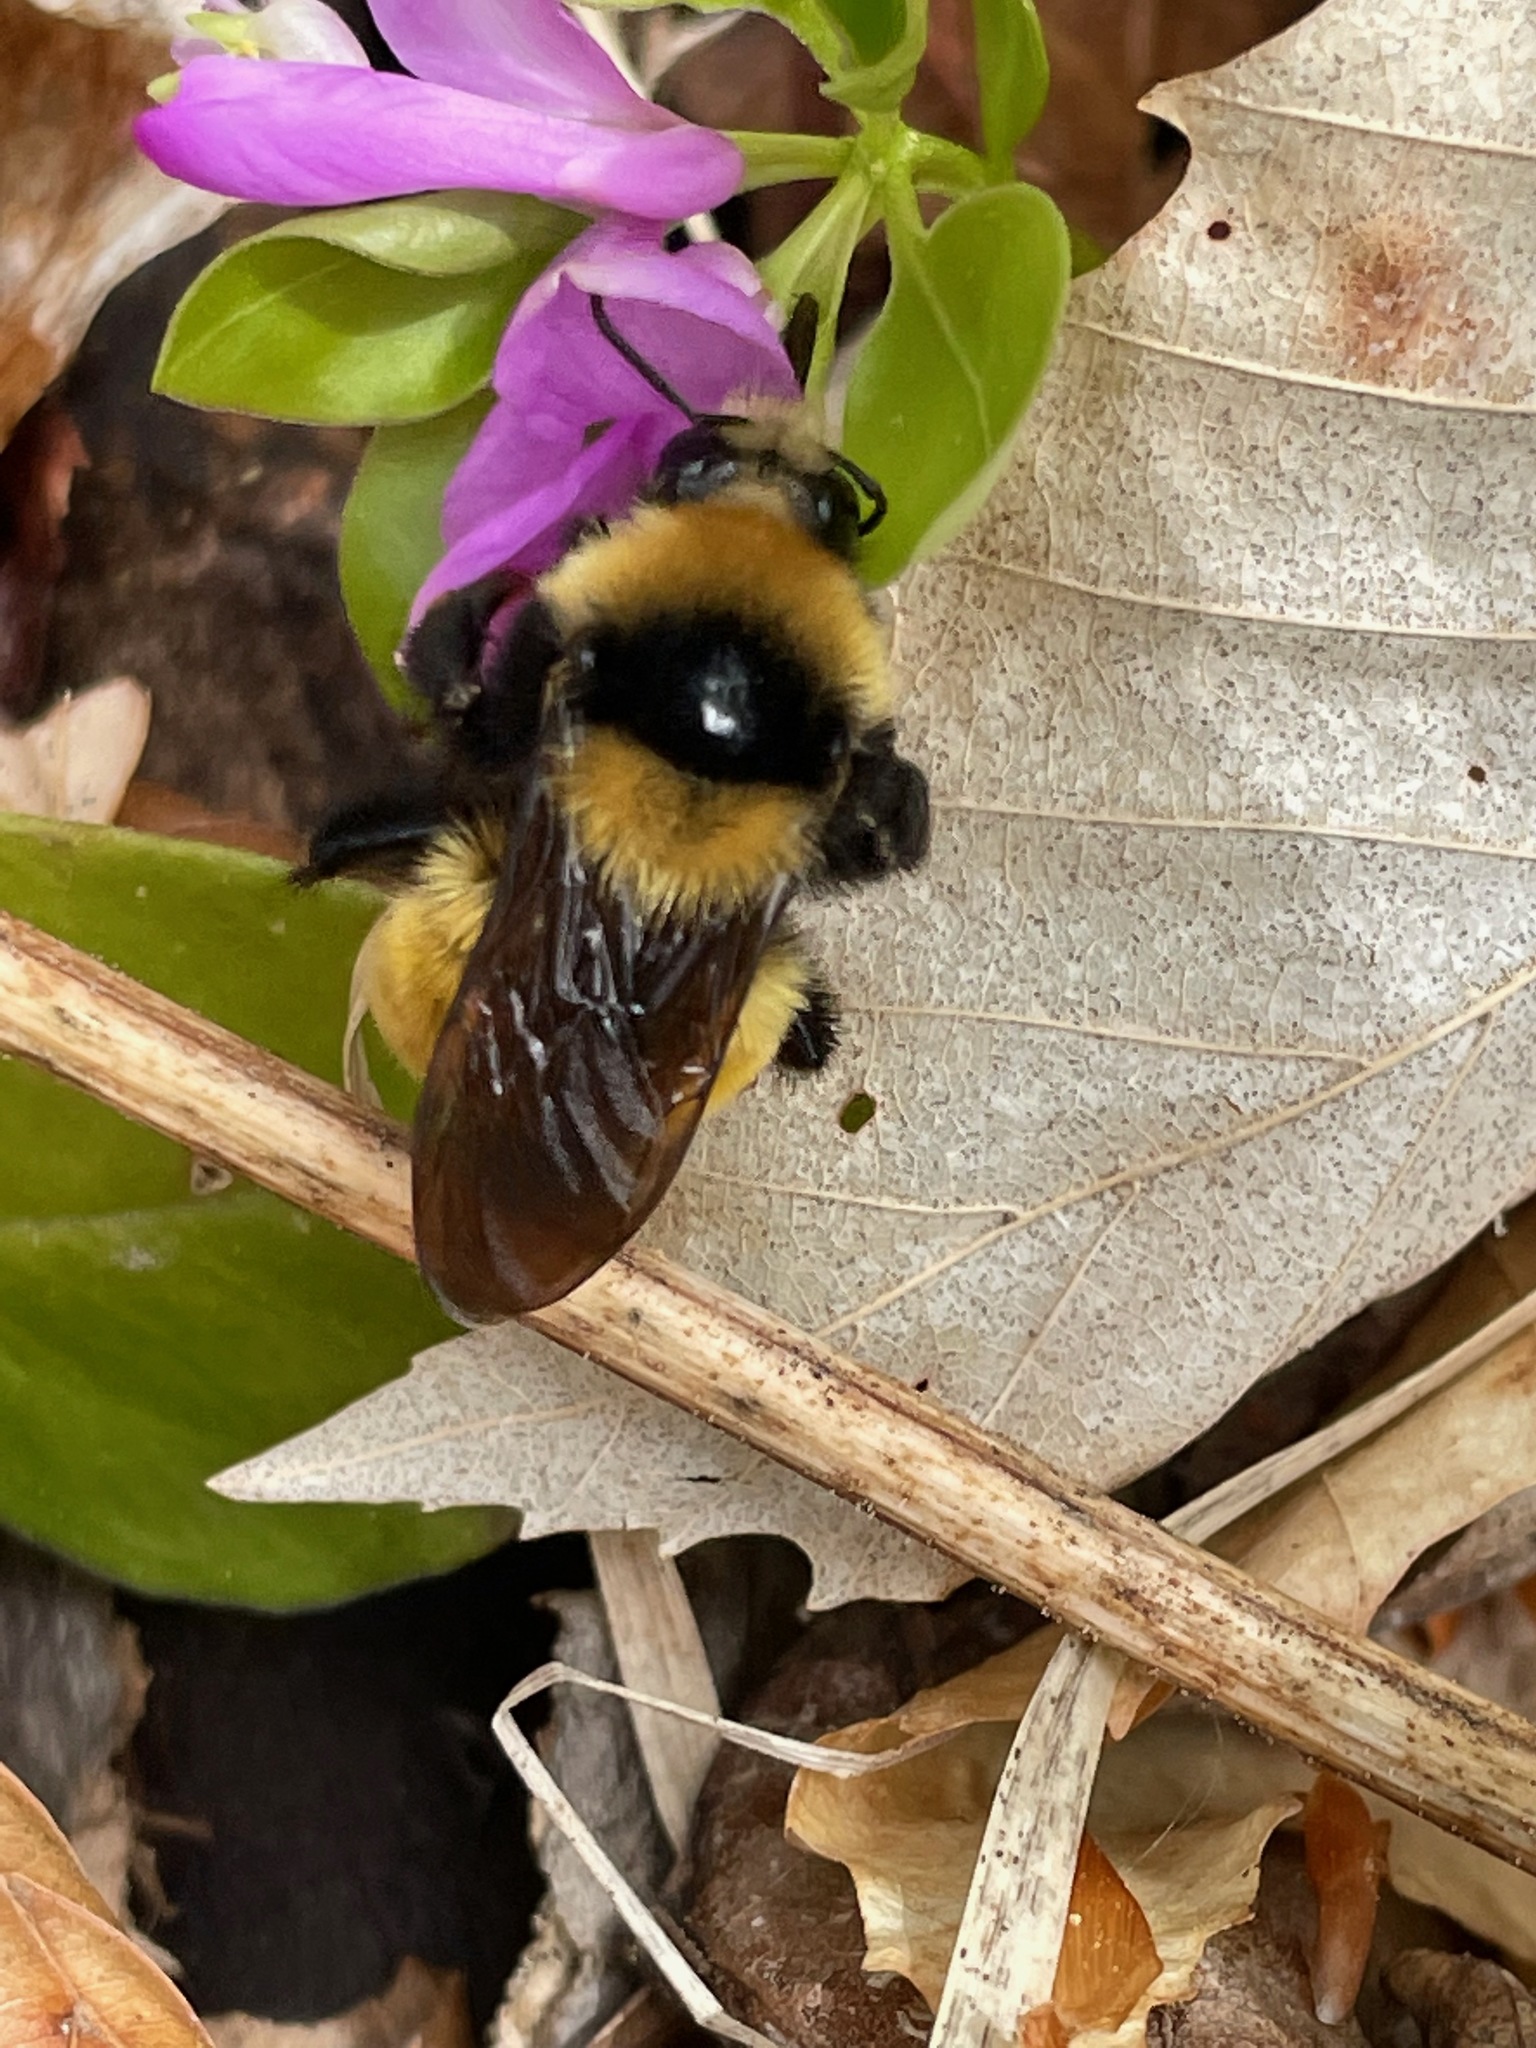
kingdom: Animalia
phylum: Arthropoda
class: Insecta
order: Hymenoptera
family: Apidae
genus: Bombus
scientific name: Bombus borealis
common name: Northern amber bumble bee
